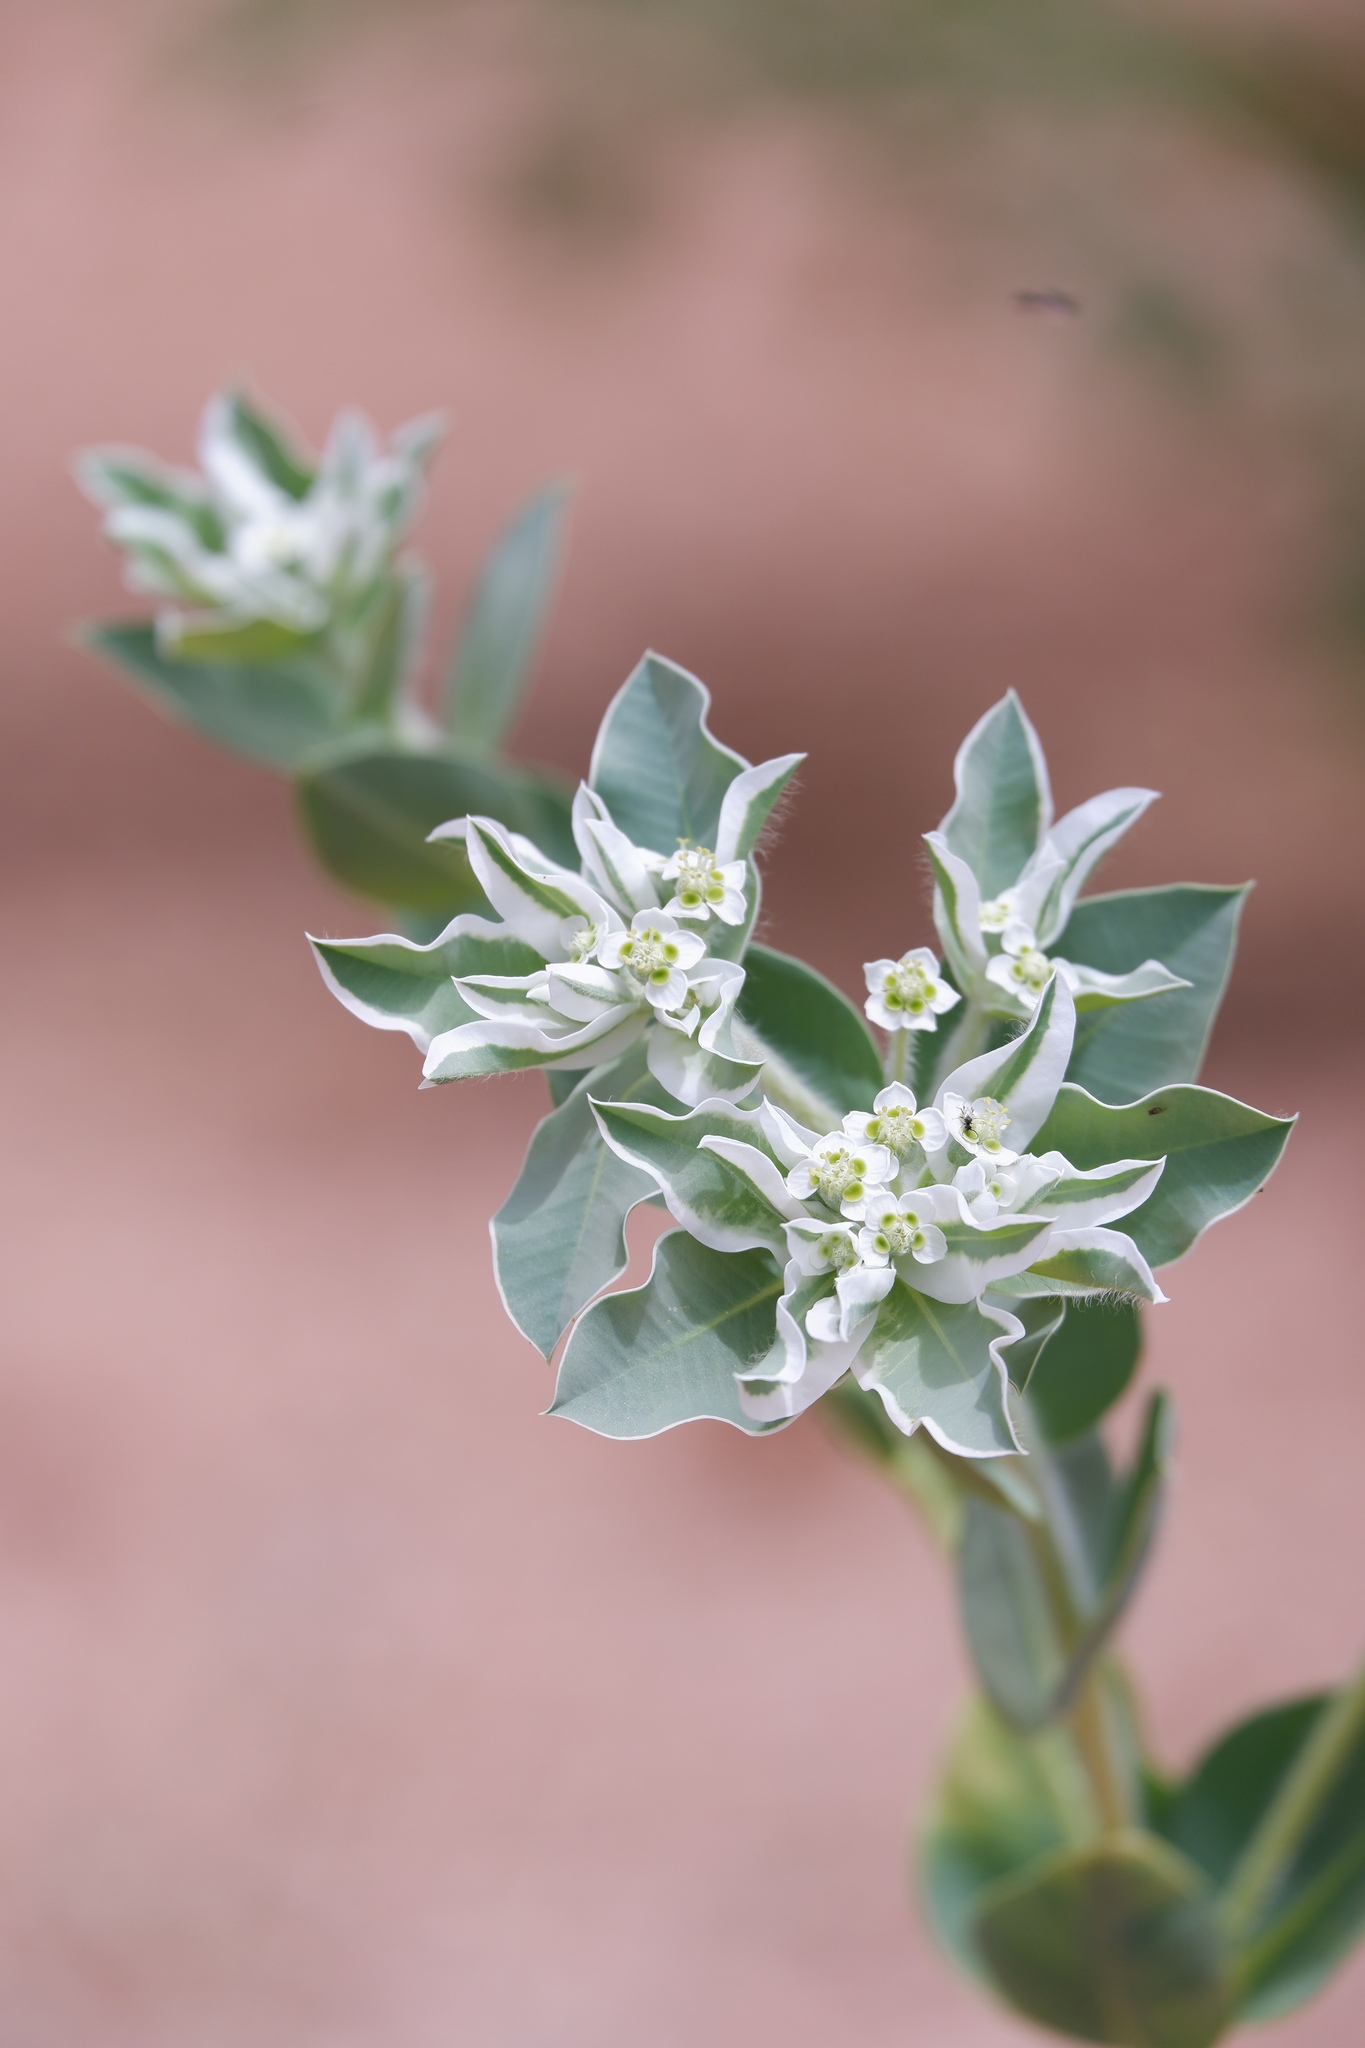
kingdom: Plantae
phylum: Tracheophyta
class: Magnoliopsida
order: Malpighiales
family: Euphorbiaceae
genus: Euphorbia
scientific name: Euphorbia marginata
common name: Ghostweed
